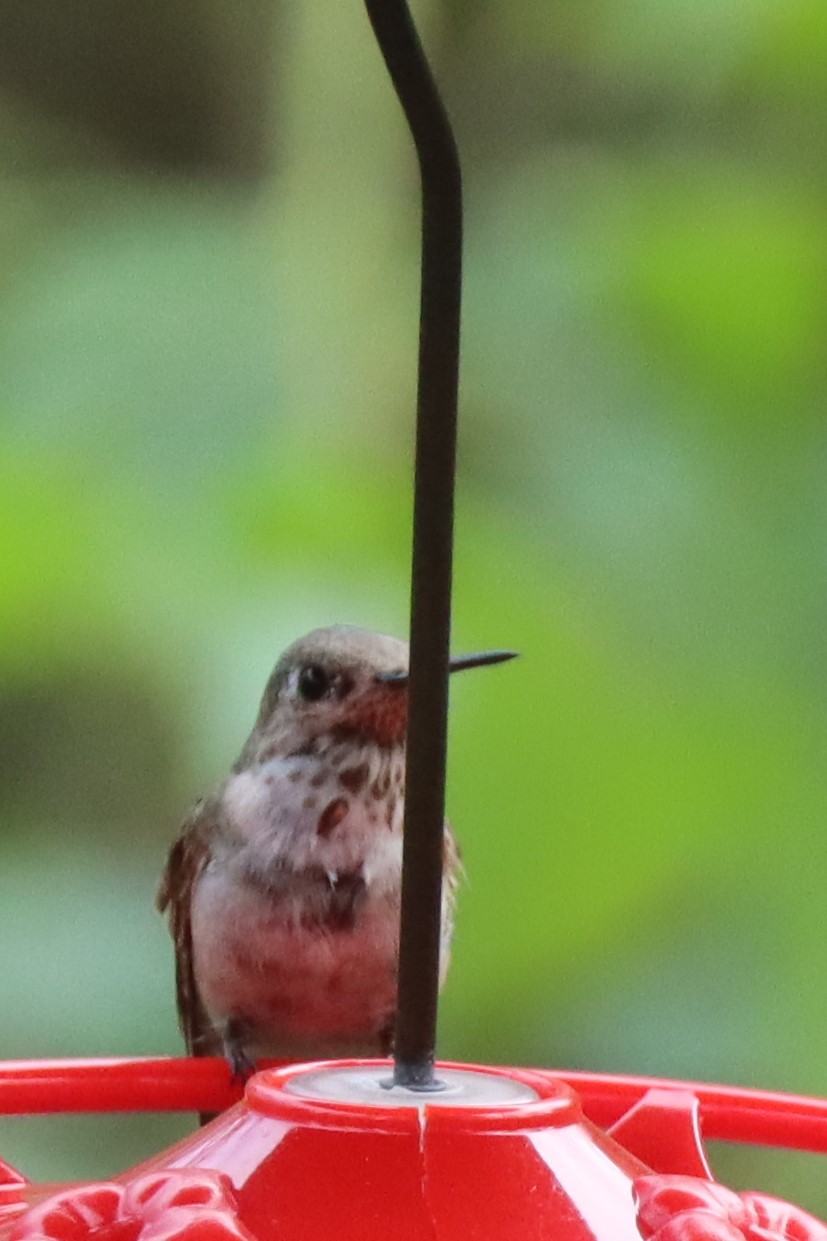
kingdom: Animalia
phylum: Chordata
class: Aves
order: Apodiformes
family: Trochilidae
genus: Selasphorus
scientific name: Selasphorus calliope
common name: Calliope hummingbird
